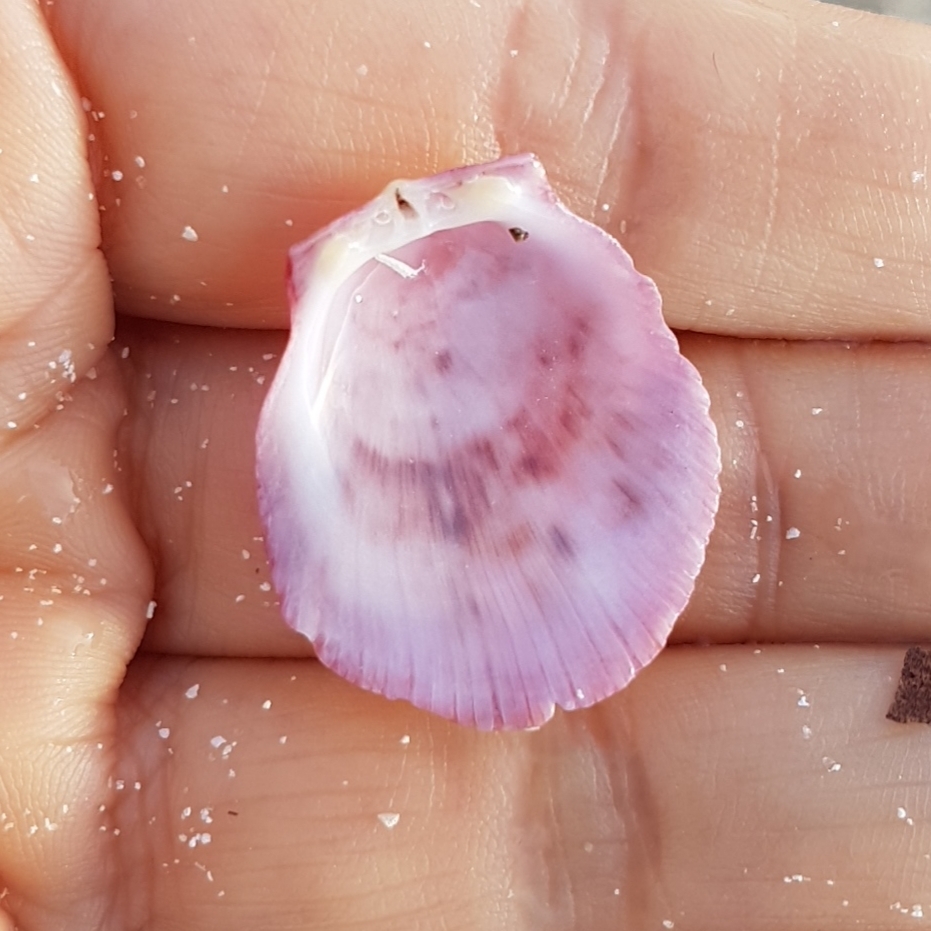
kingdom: Animalia
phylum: Mollusca
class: Bivalvia
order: Pectinida
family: Spondylidae
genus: Spondylus
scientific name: Spondylus gaederopus
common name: European thorny oyster
